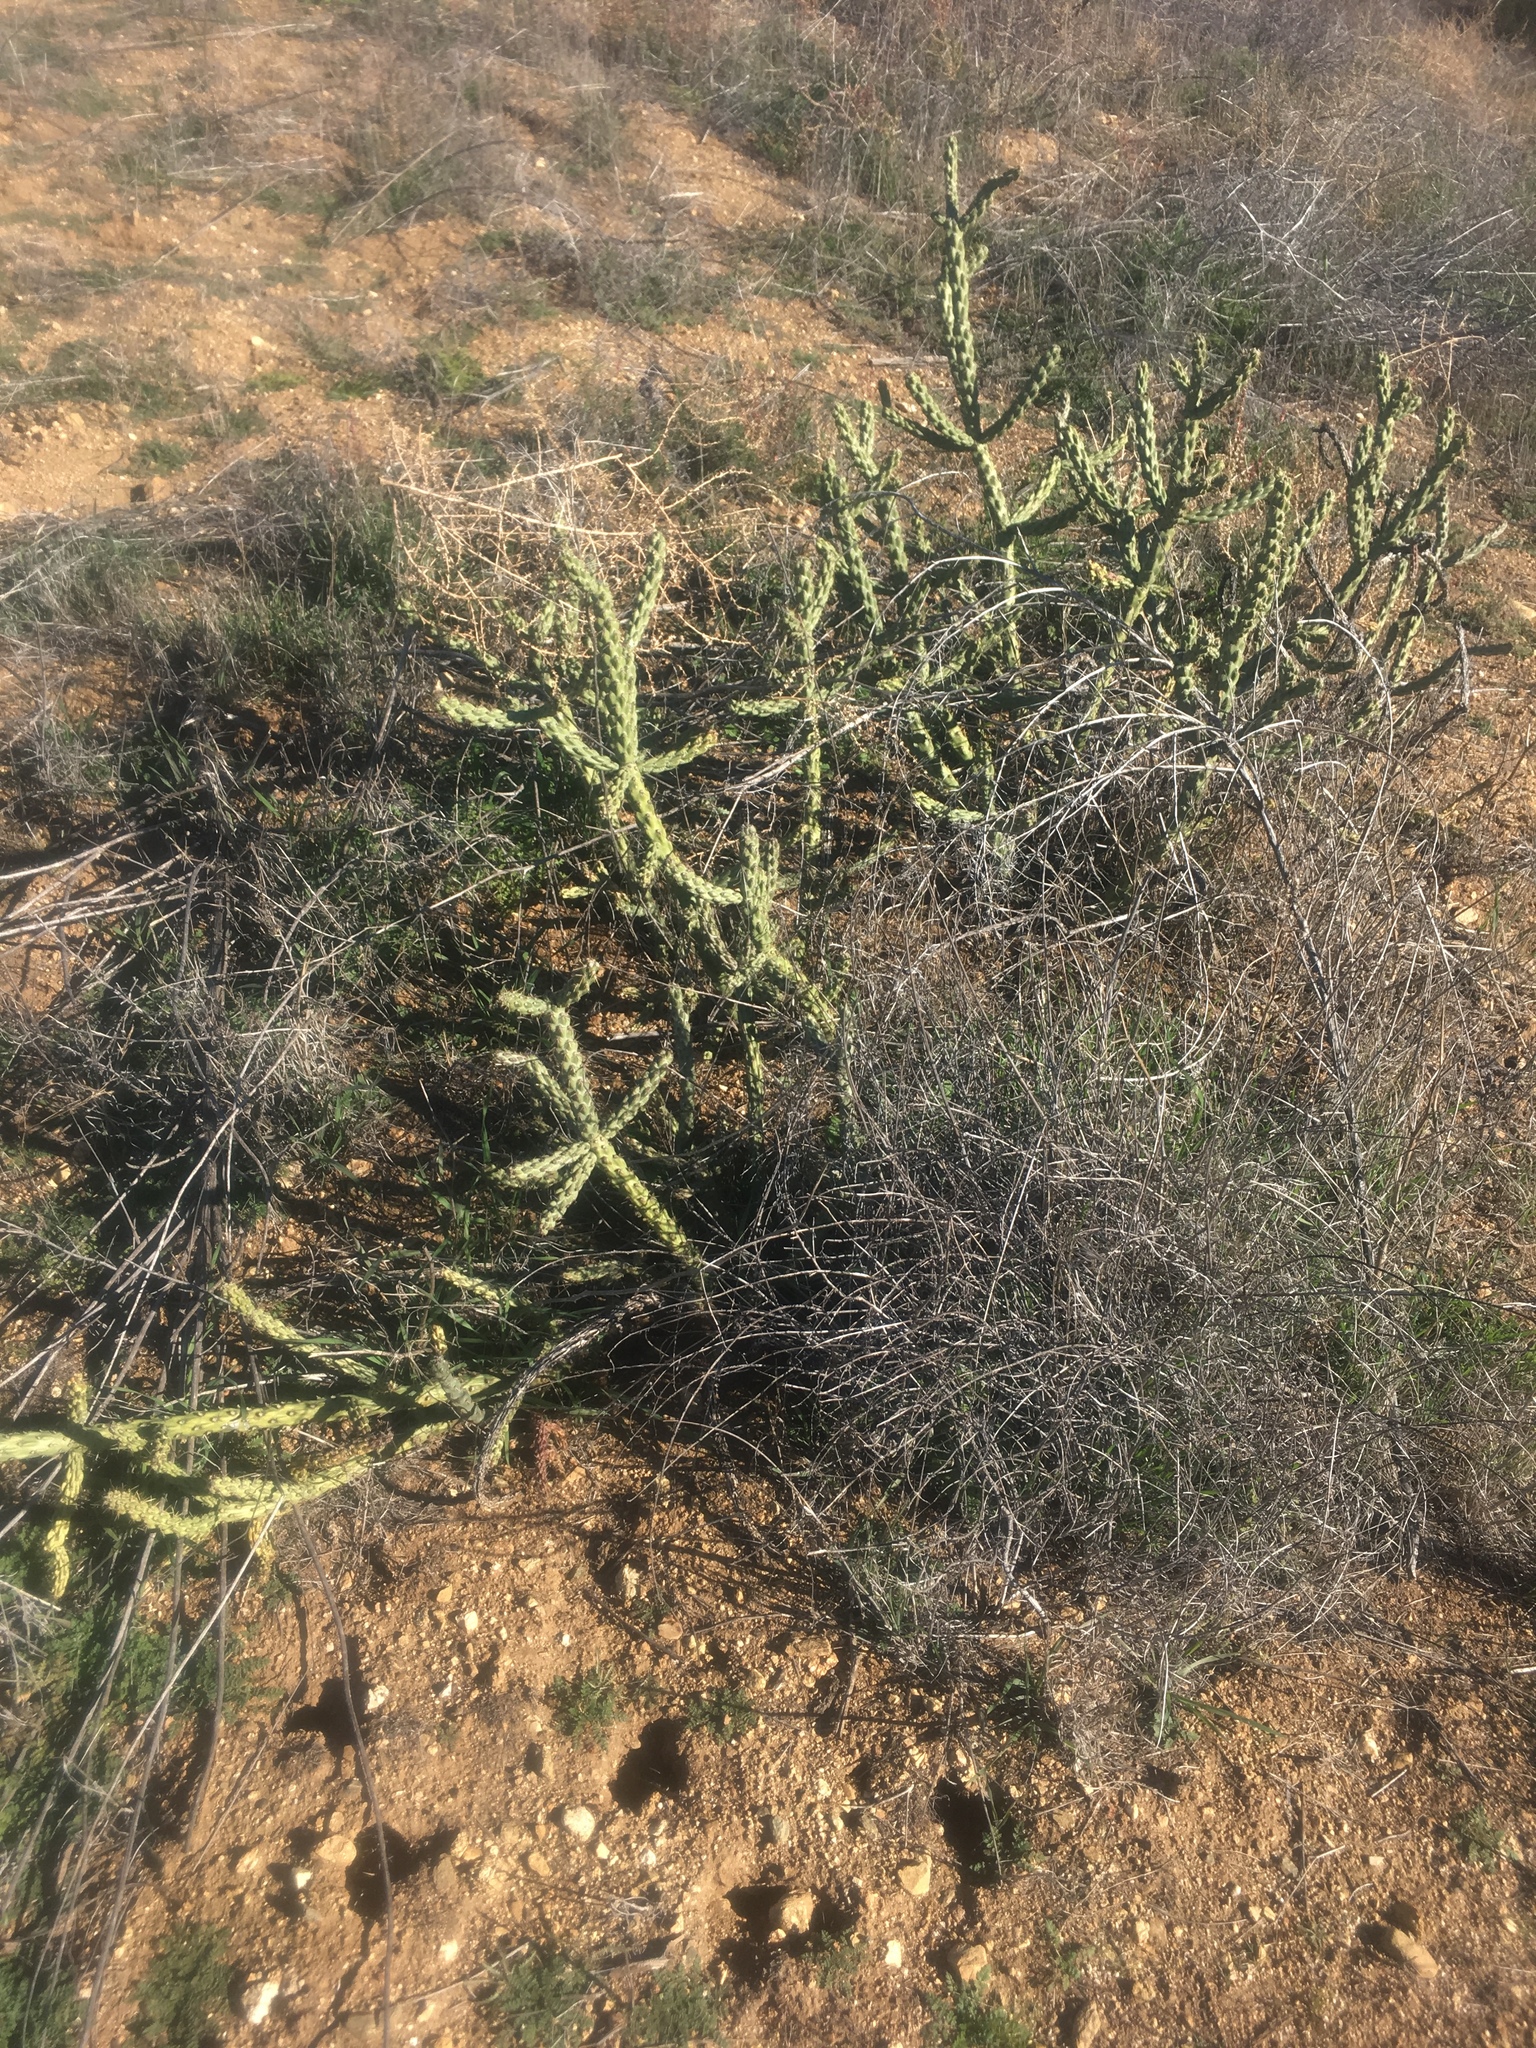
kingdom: Plantae
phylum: Tracheophyta
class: Magnoliopsida
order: Caryophyllales
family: Cactaceae
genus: Cylindropuntia
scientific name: Cylindropuntia bernardina
